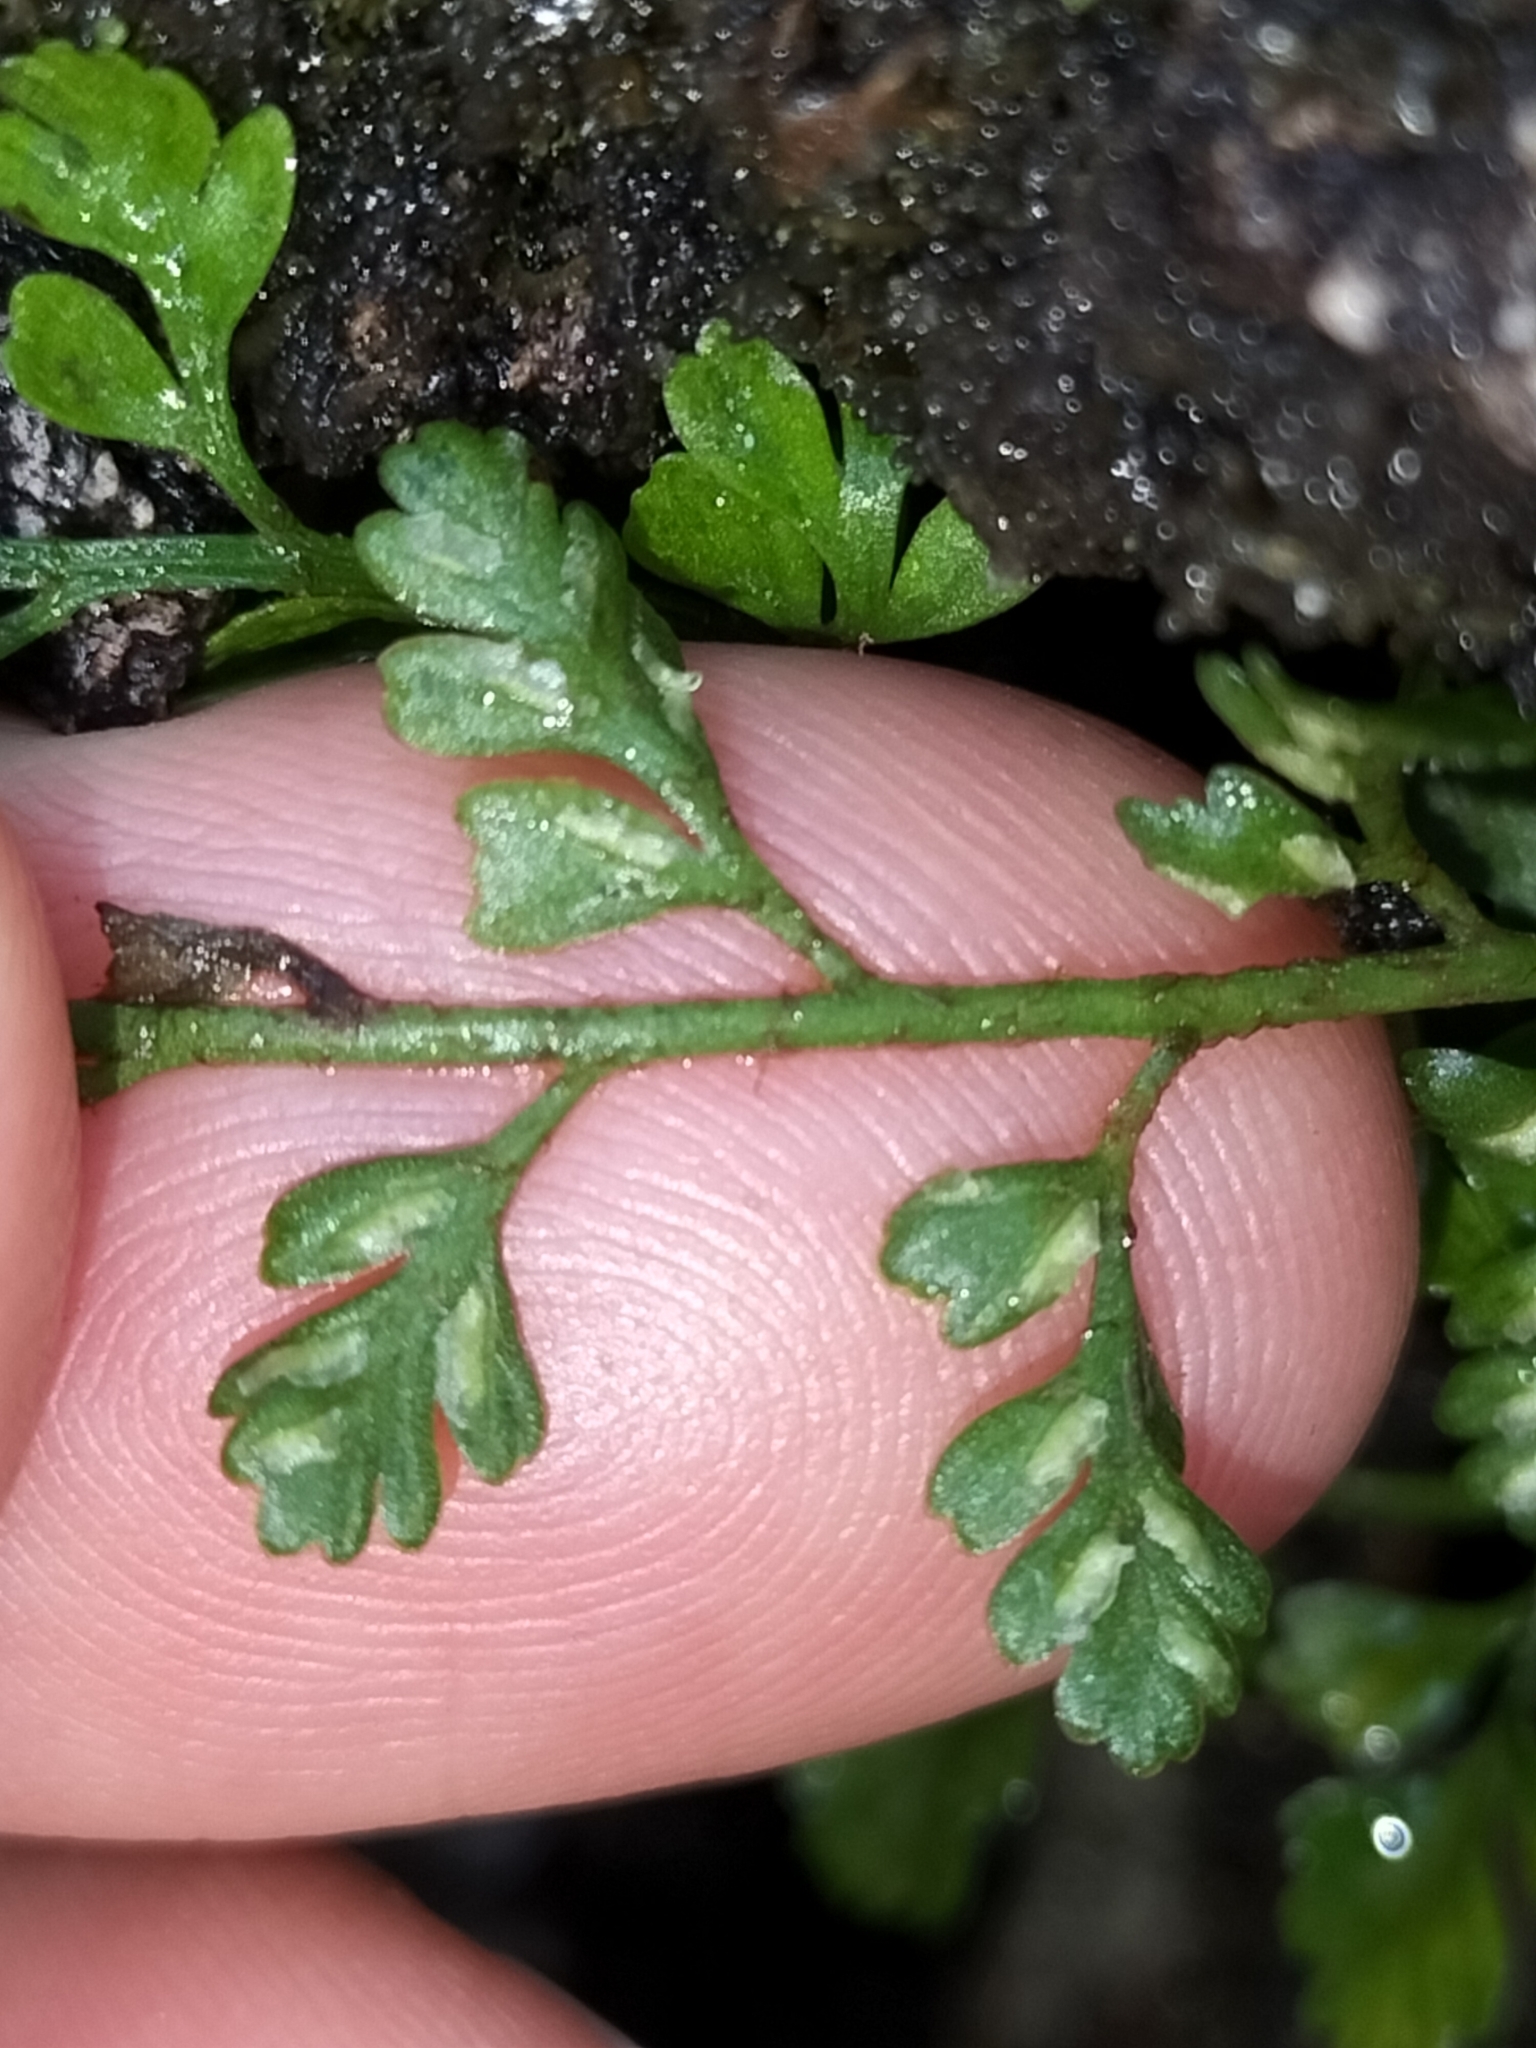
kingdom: Plantae
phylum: Tracheophyta
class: Polypodiopsida
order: Polypodiales
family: Aspleniaceae
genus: Asplenium
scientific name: Asplenium hookerianum
